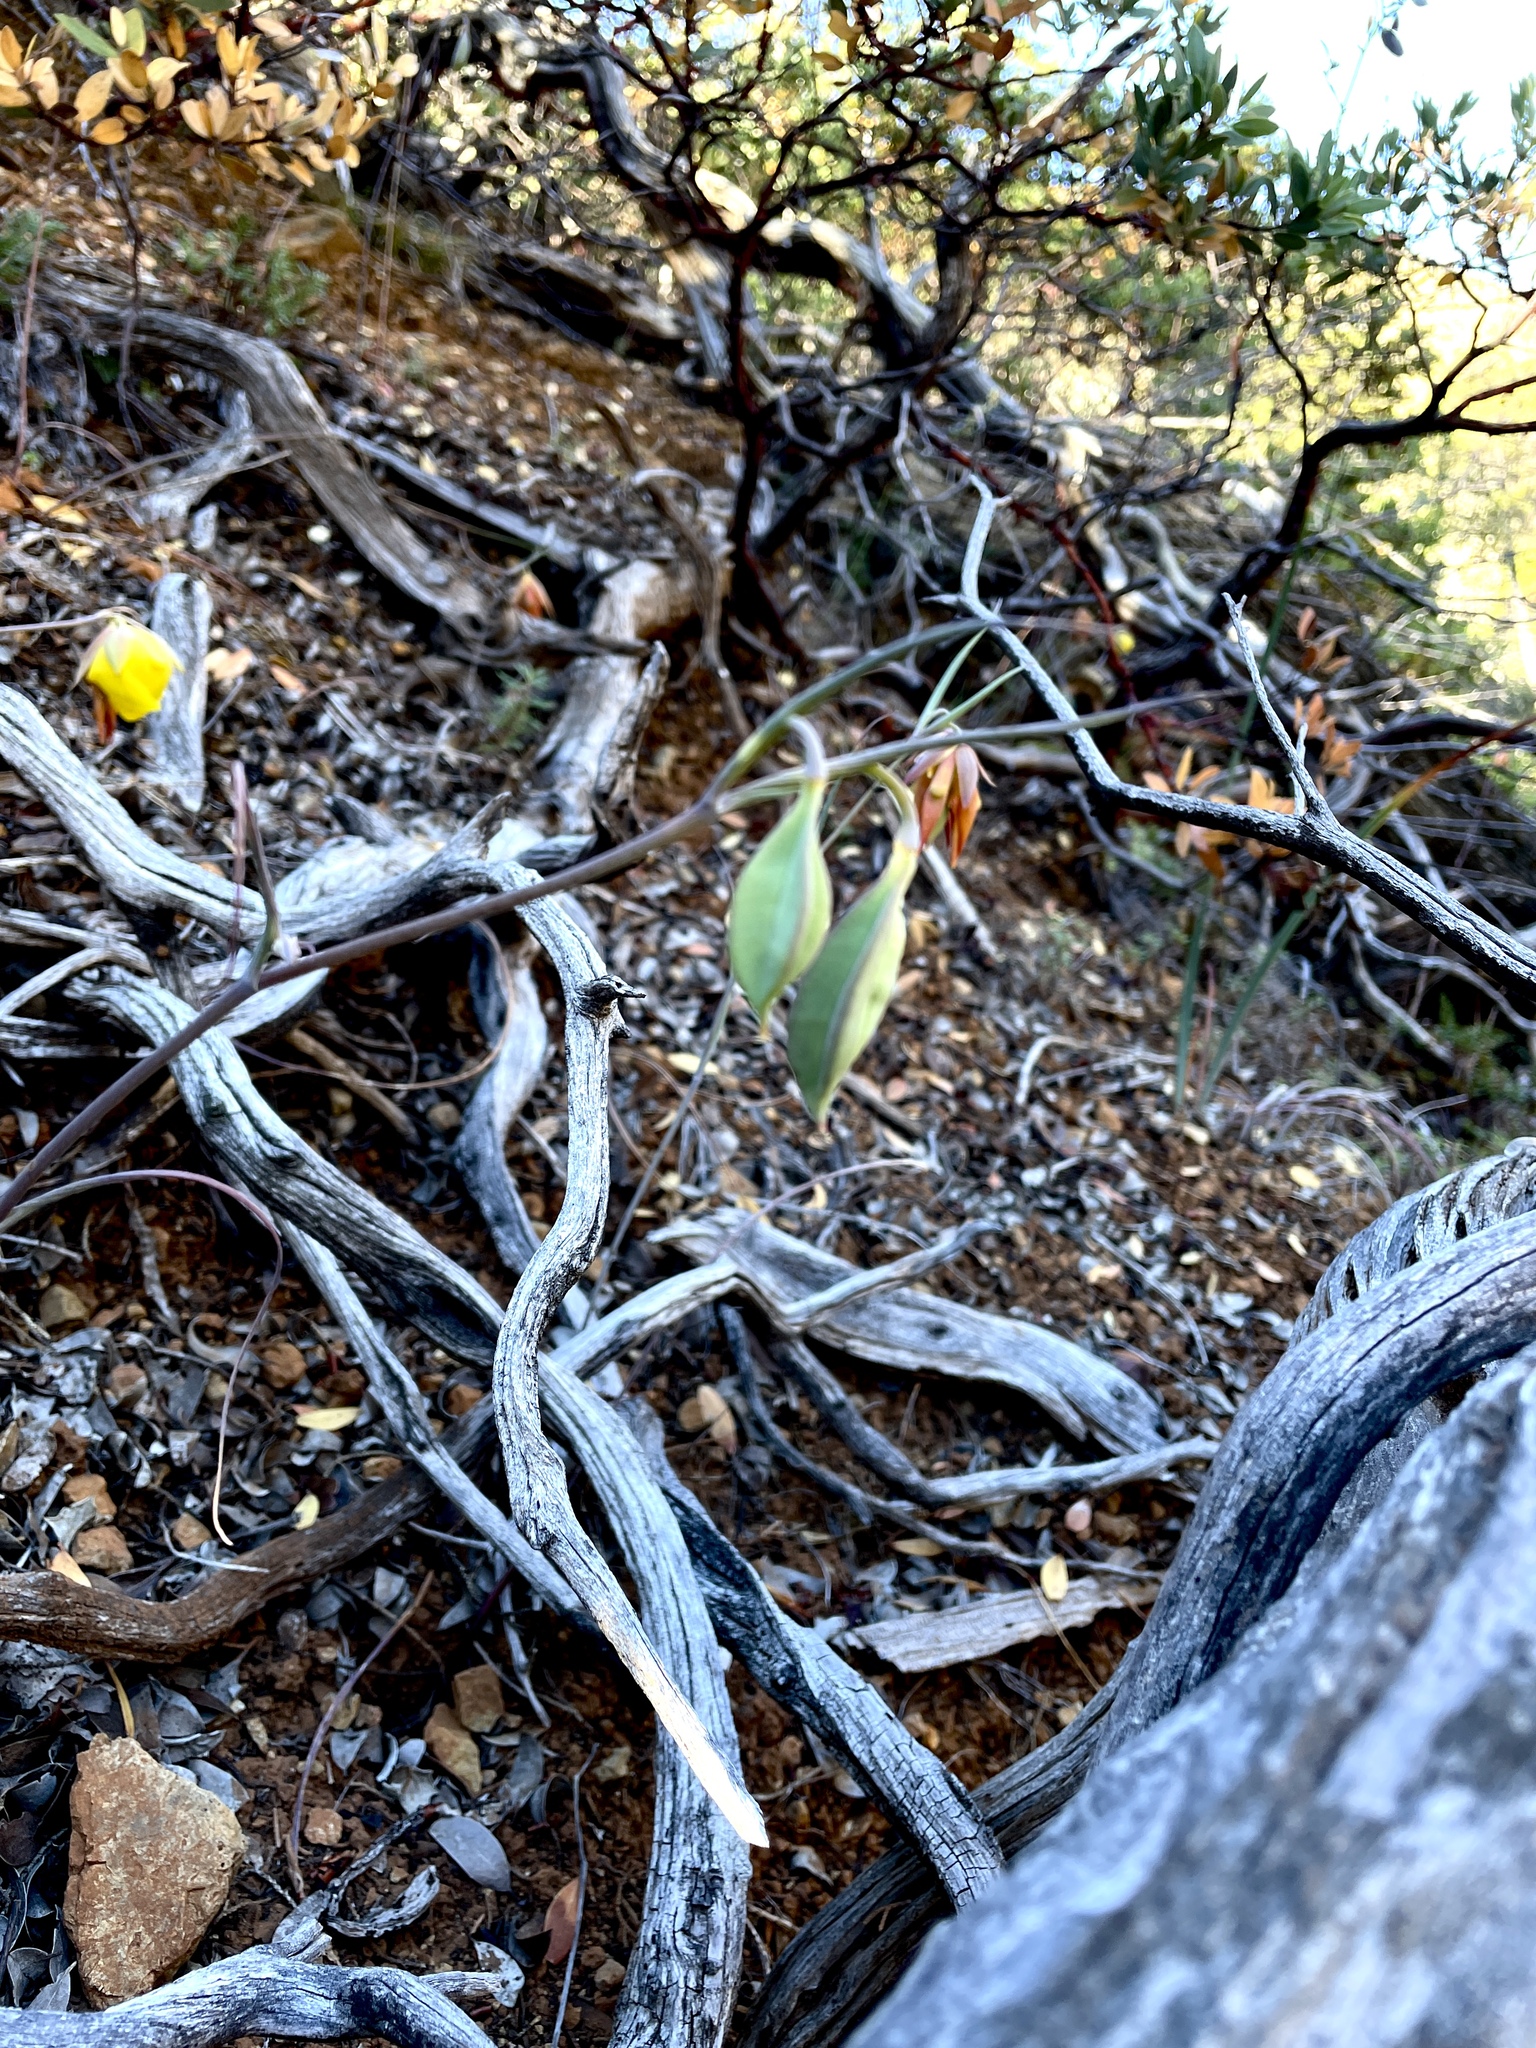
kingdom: Plantae
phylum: Tracheophyta
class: Liliopsida
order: Liliales
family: Liliaceae
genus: Calochortus
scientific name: Calochortus raichei
